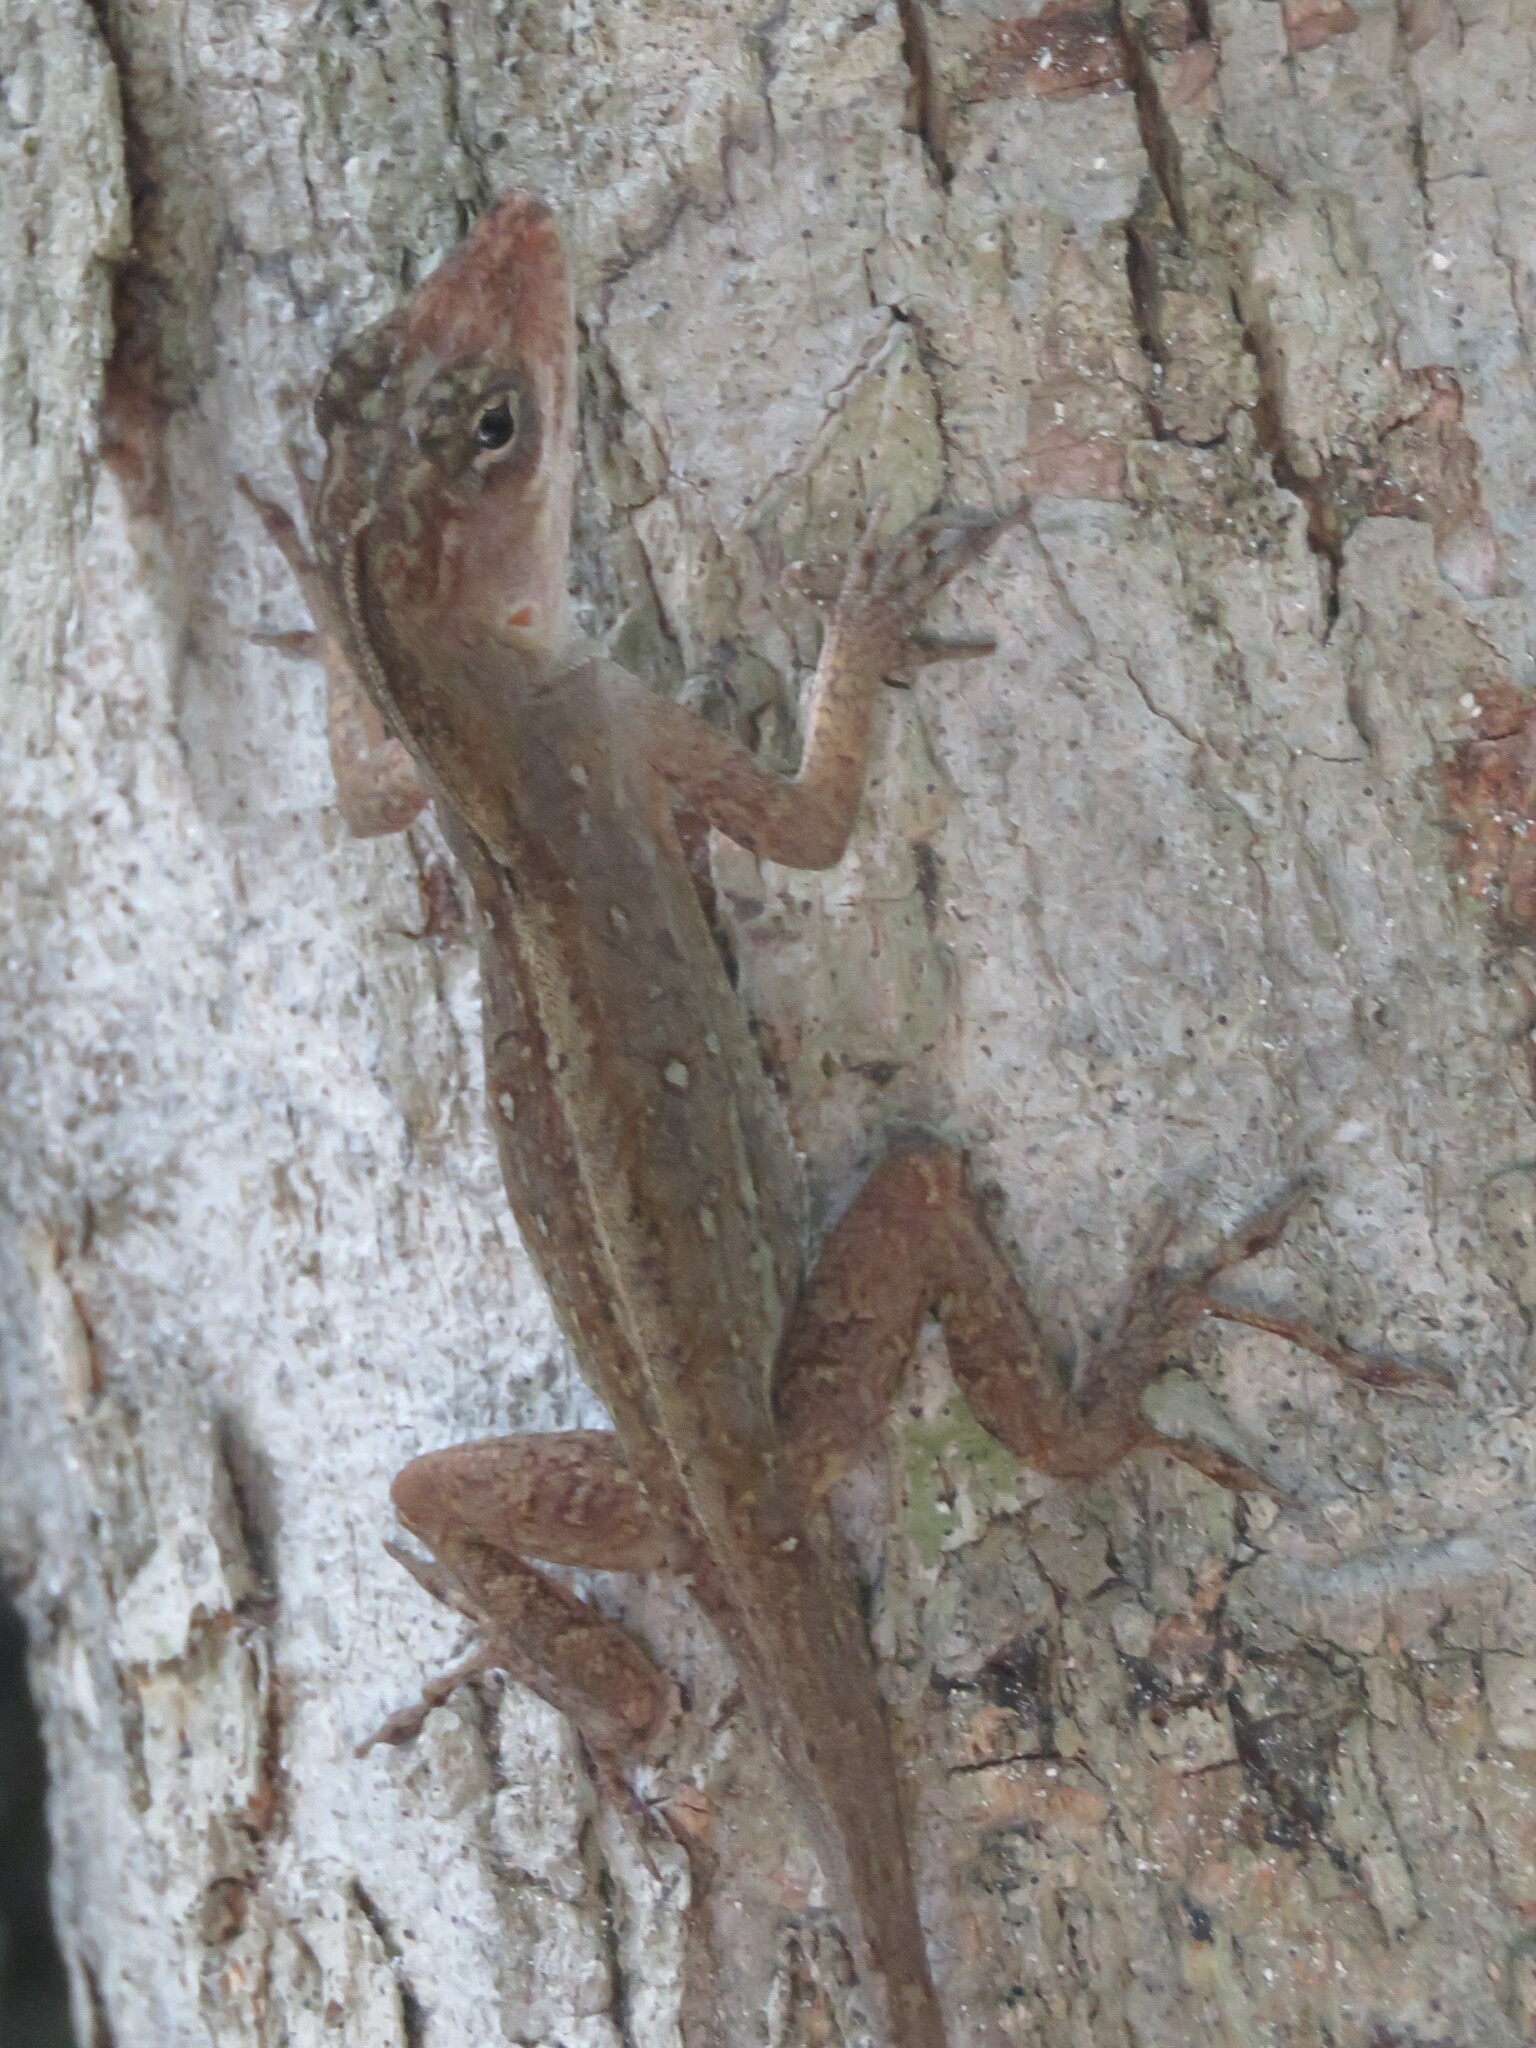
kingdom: Animalia
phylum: Chordata
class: Squamata
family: Dactyloidae
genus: Anolis
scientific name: Anolis sagrei
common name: Brown anole
